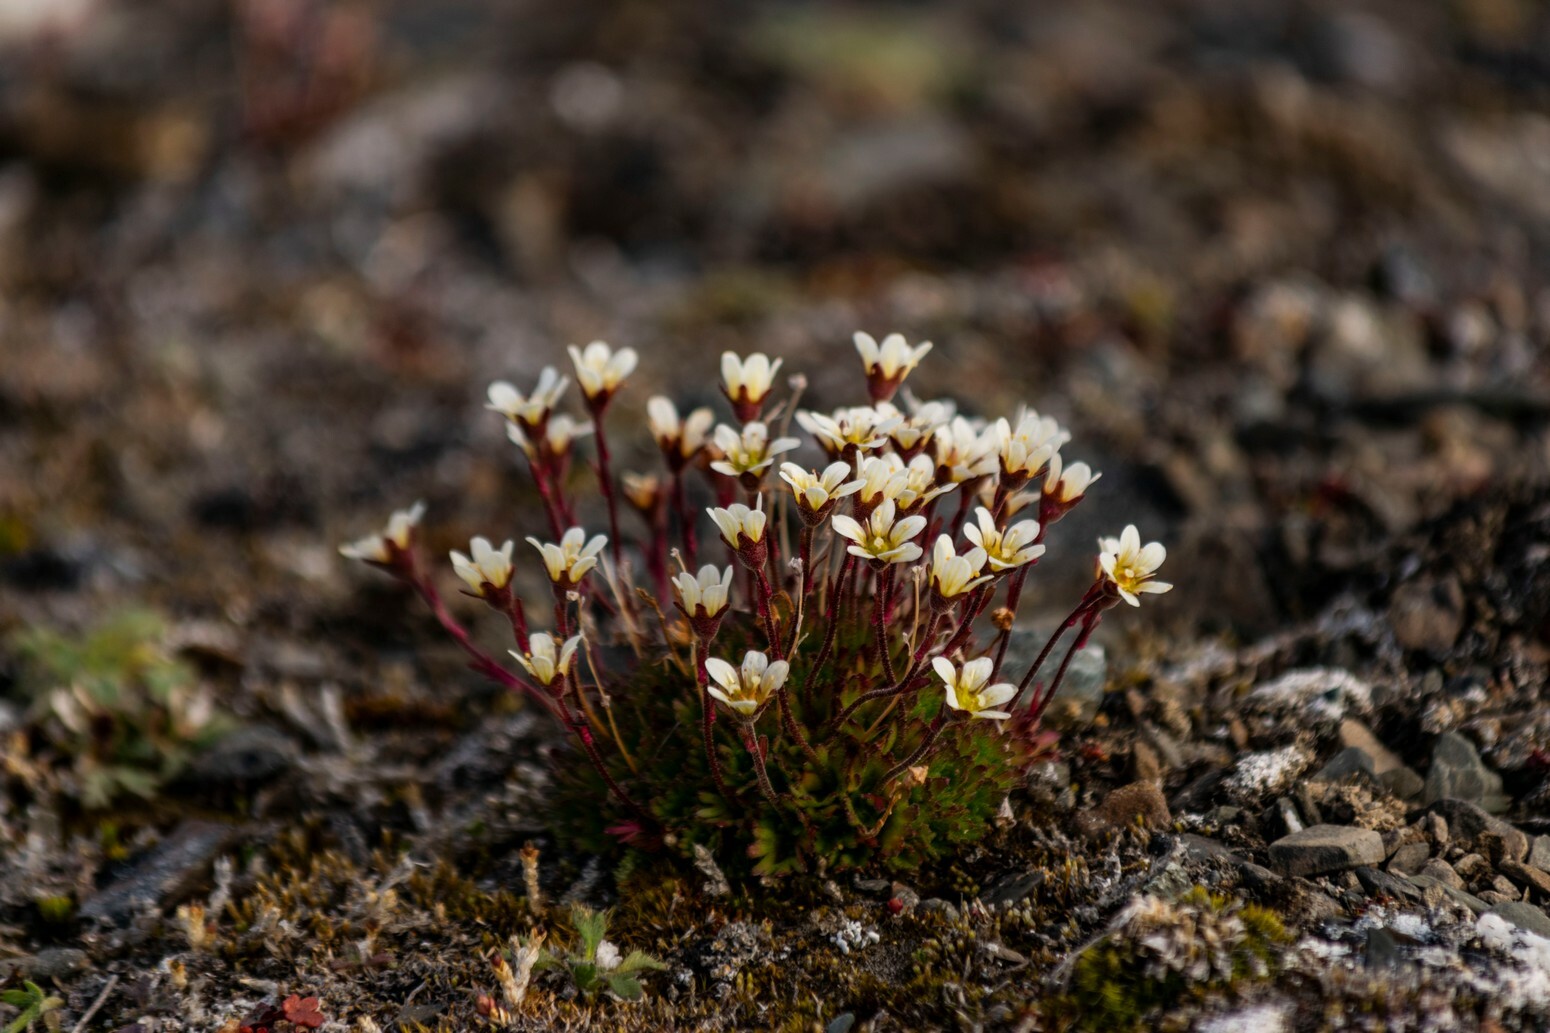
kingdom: Plantae
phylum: Tracheophyta
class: Magnoliopsida
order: Saxifragales
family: Saxifragaceae
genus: Saxifraga
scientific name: Saxifraga cespitosa
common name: Tufted saxifrage
